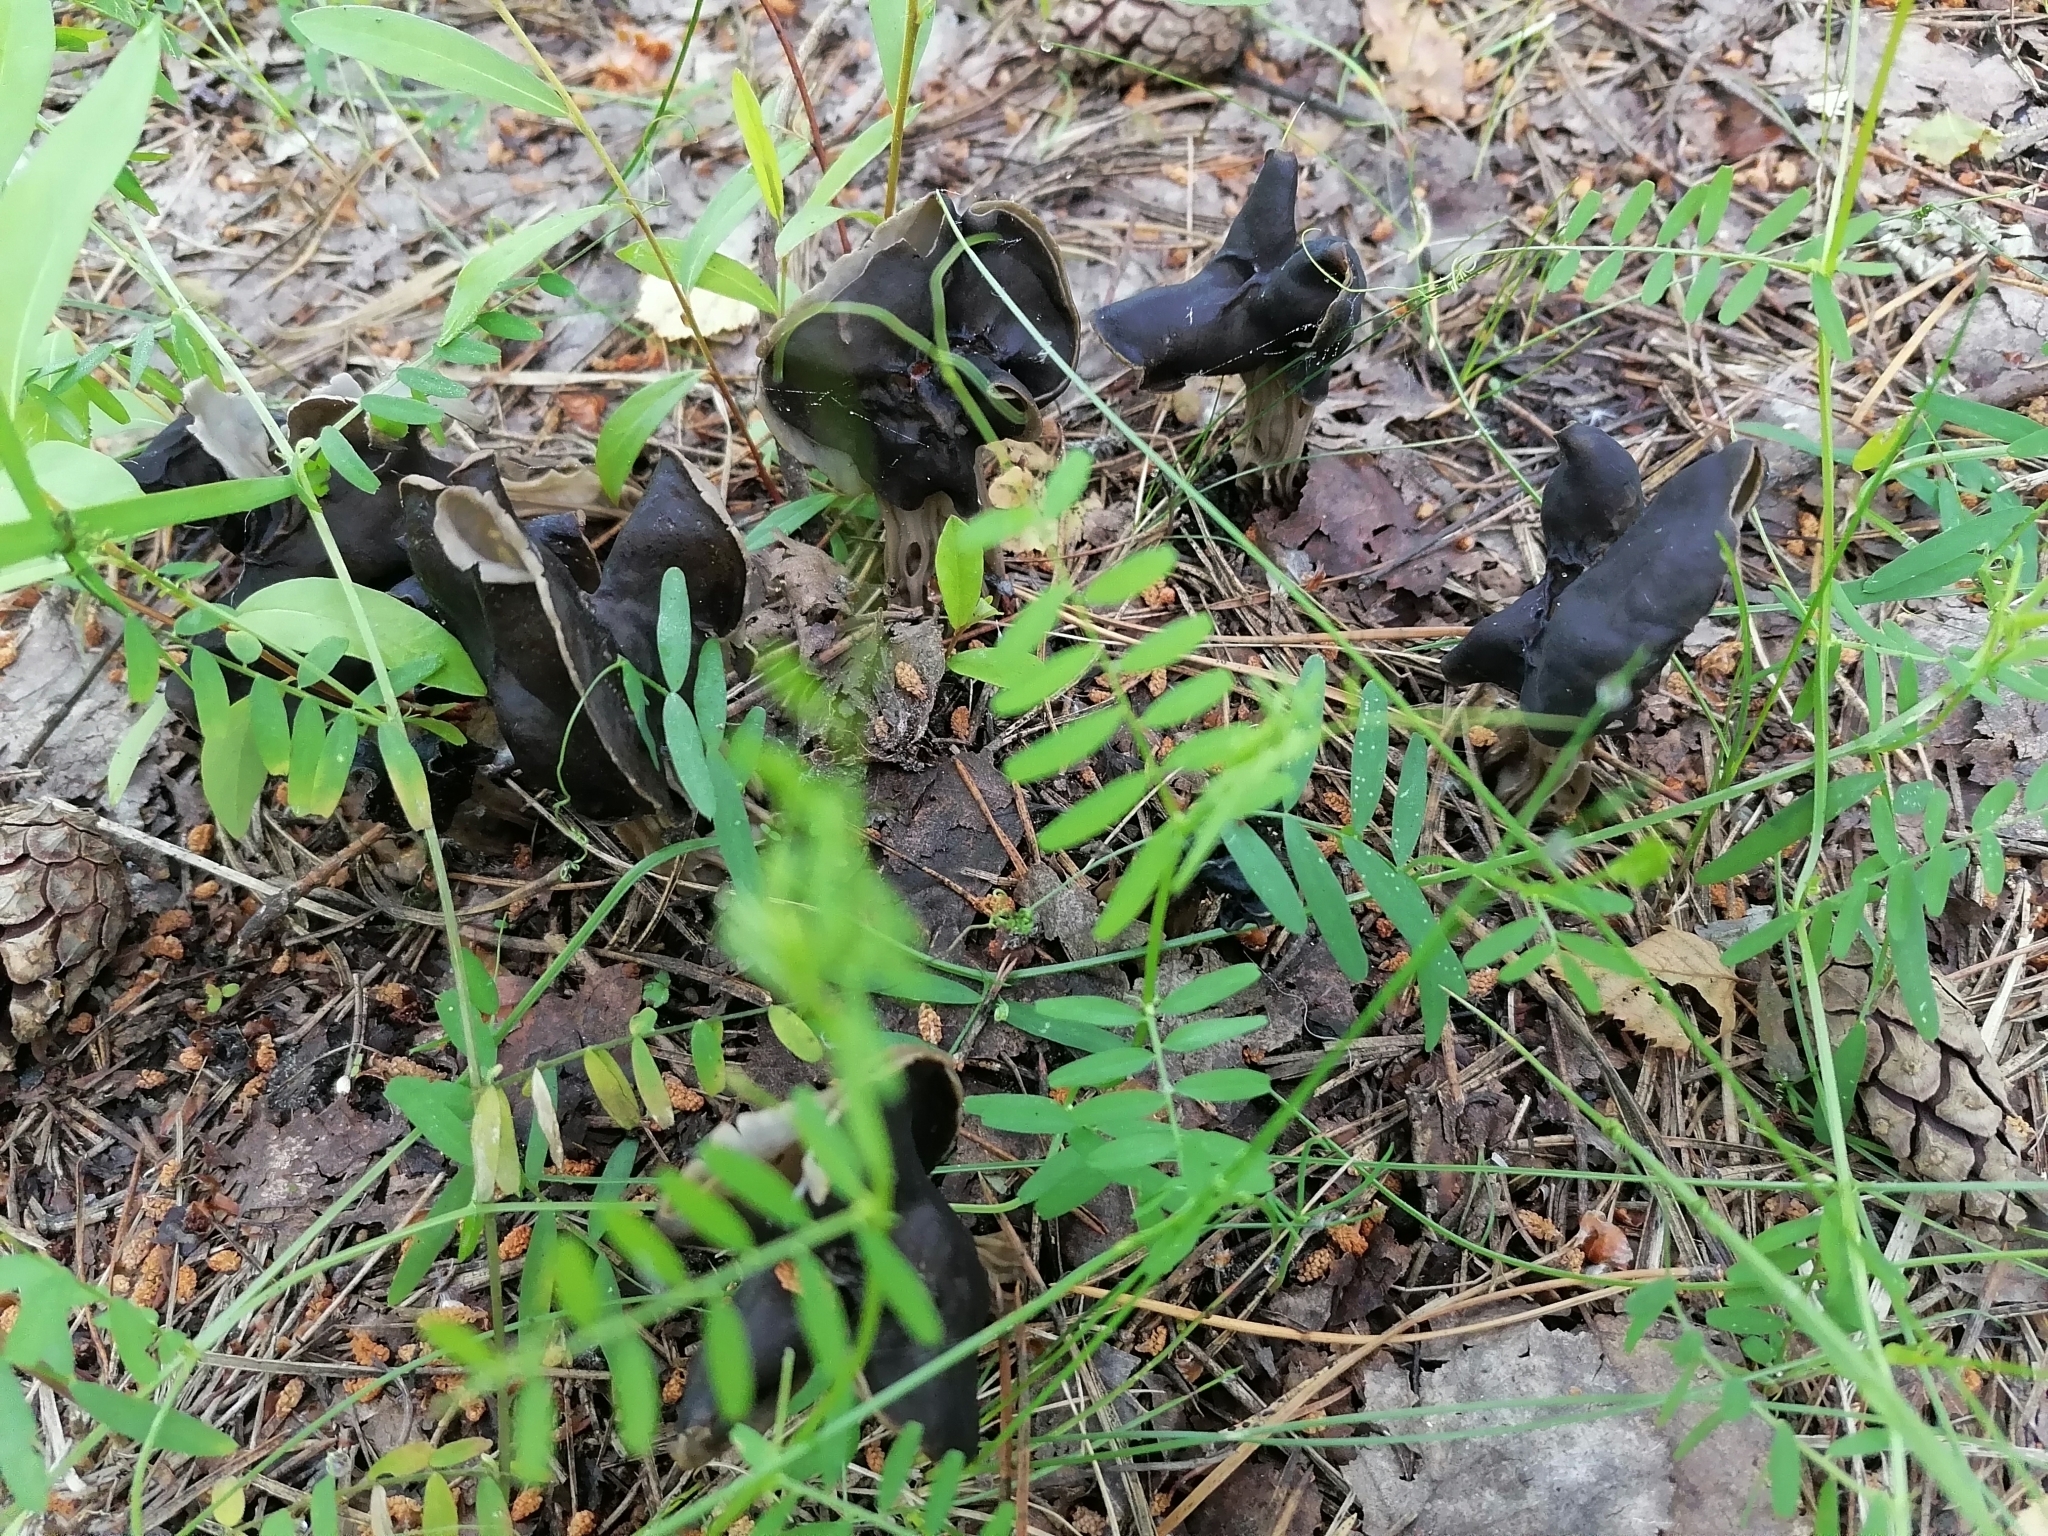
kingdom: Fungi
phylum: Ascomycota
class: Pezizomycetes
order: Pezizales
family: Helvellaceae
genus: Helvella
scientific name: Helvella lacunosa
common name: Elfin saddle
